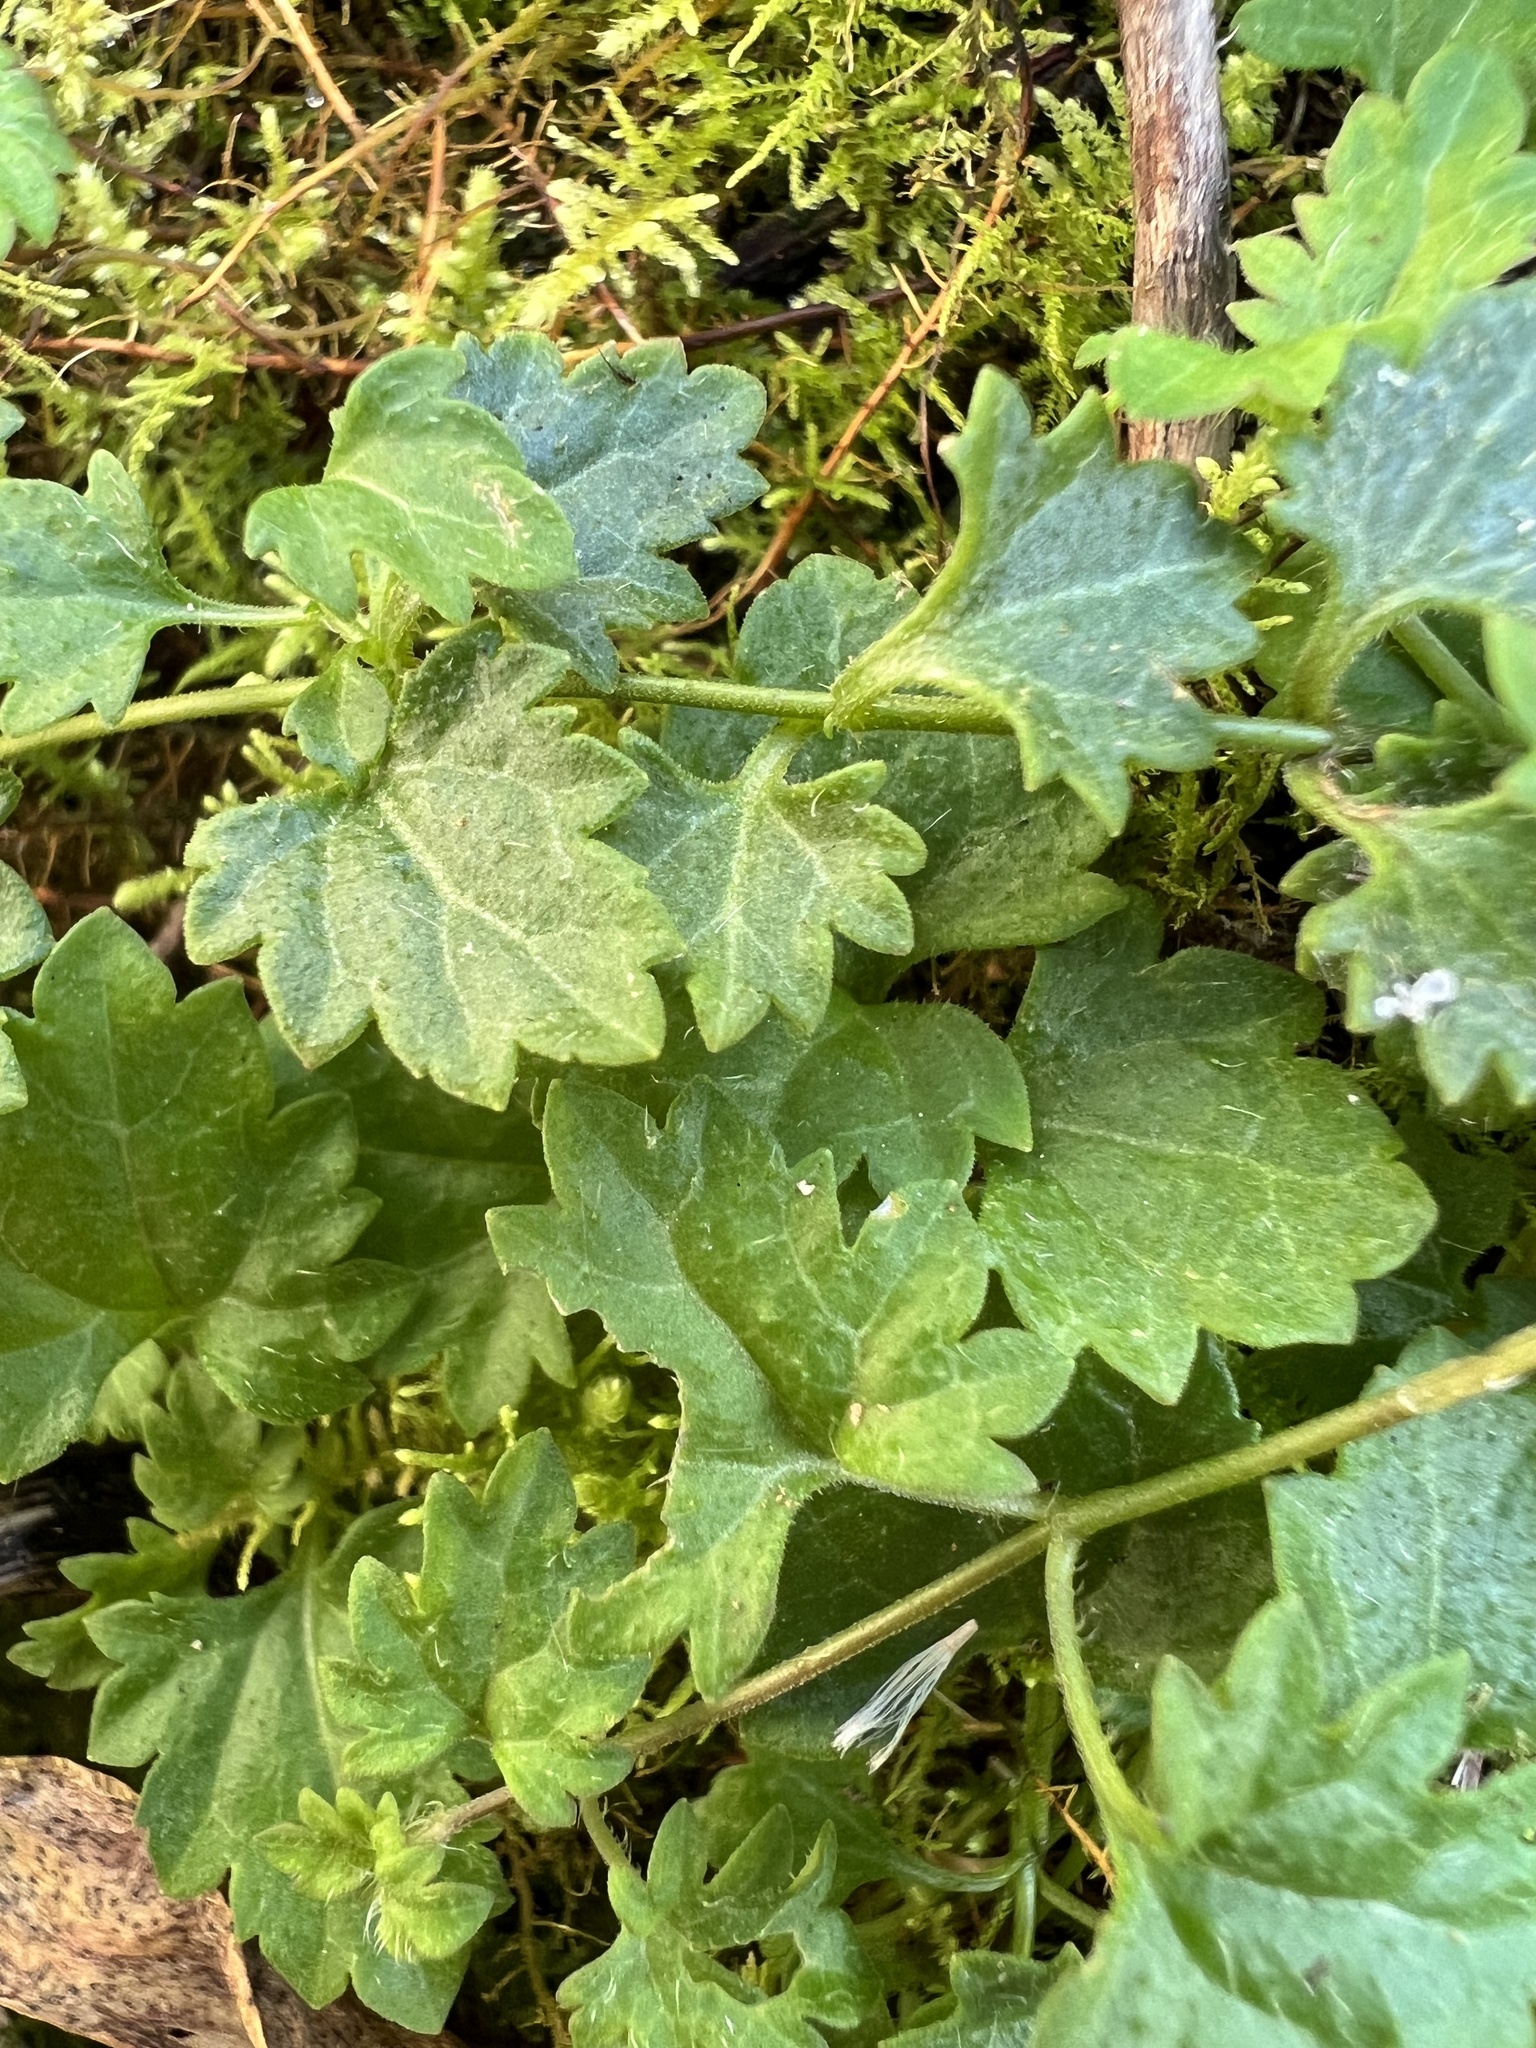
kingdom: Plantae
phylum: Tracheophyta
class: Magnoliopsida
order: Lamiales
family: Plantaginaceae
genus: Veronica
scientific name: Veronica plebeia
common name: Speedwell
